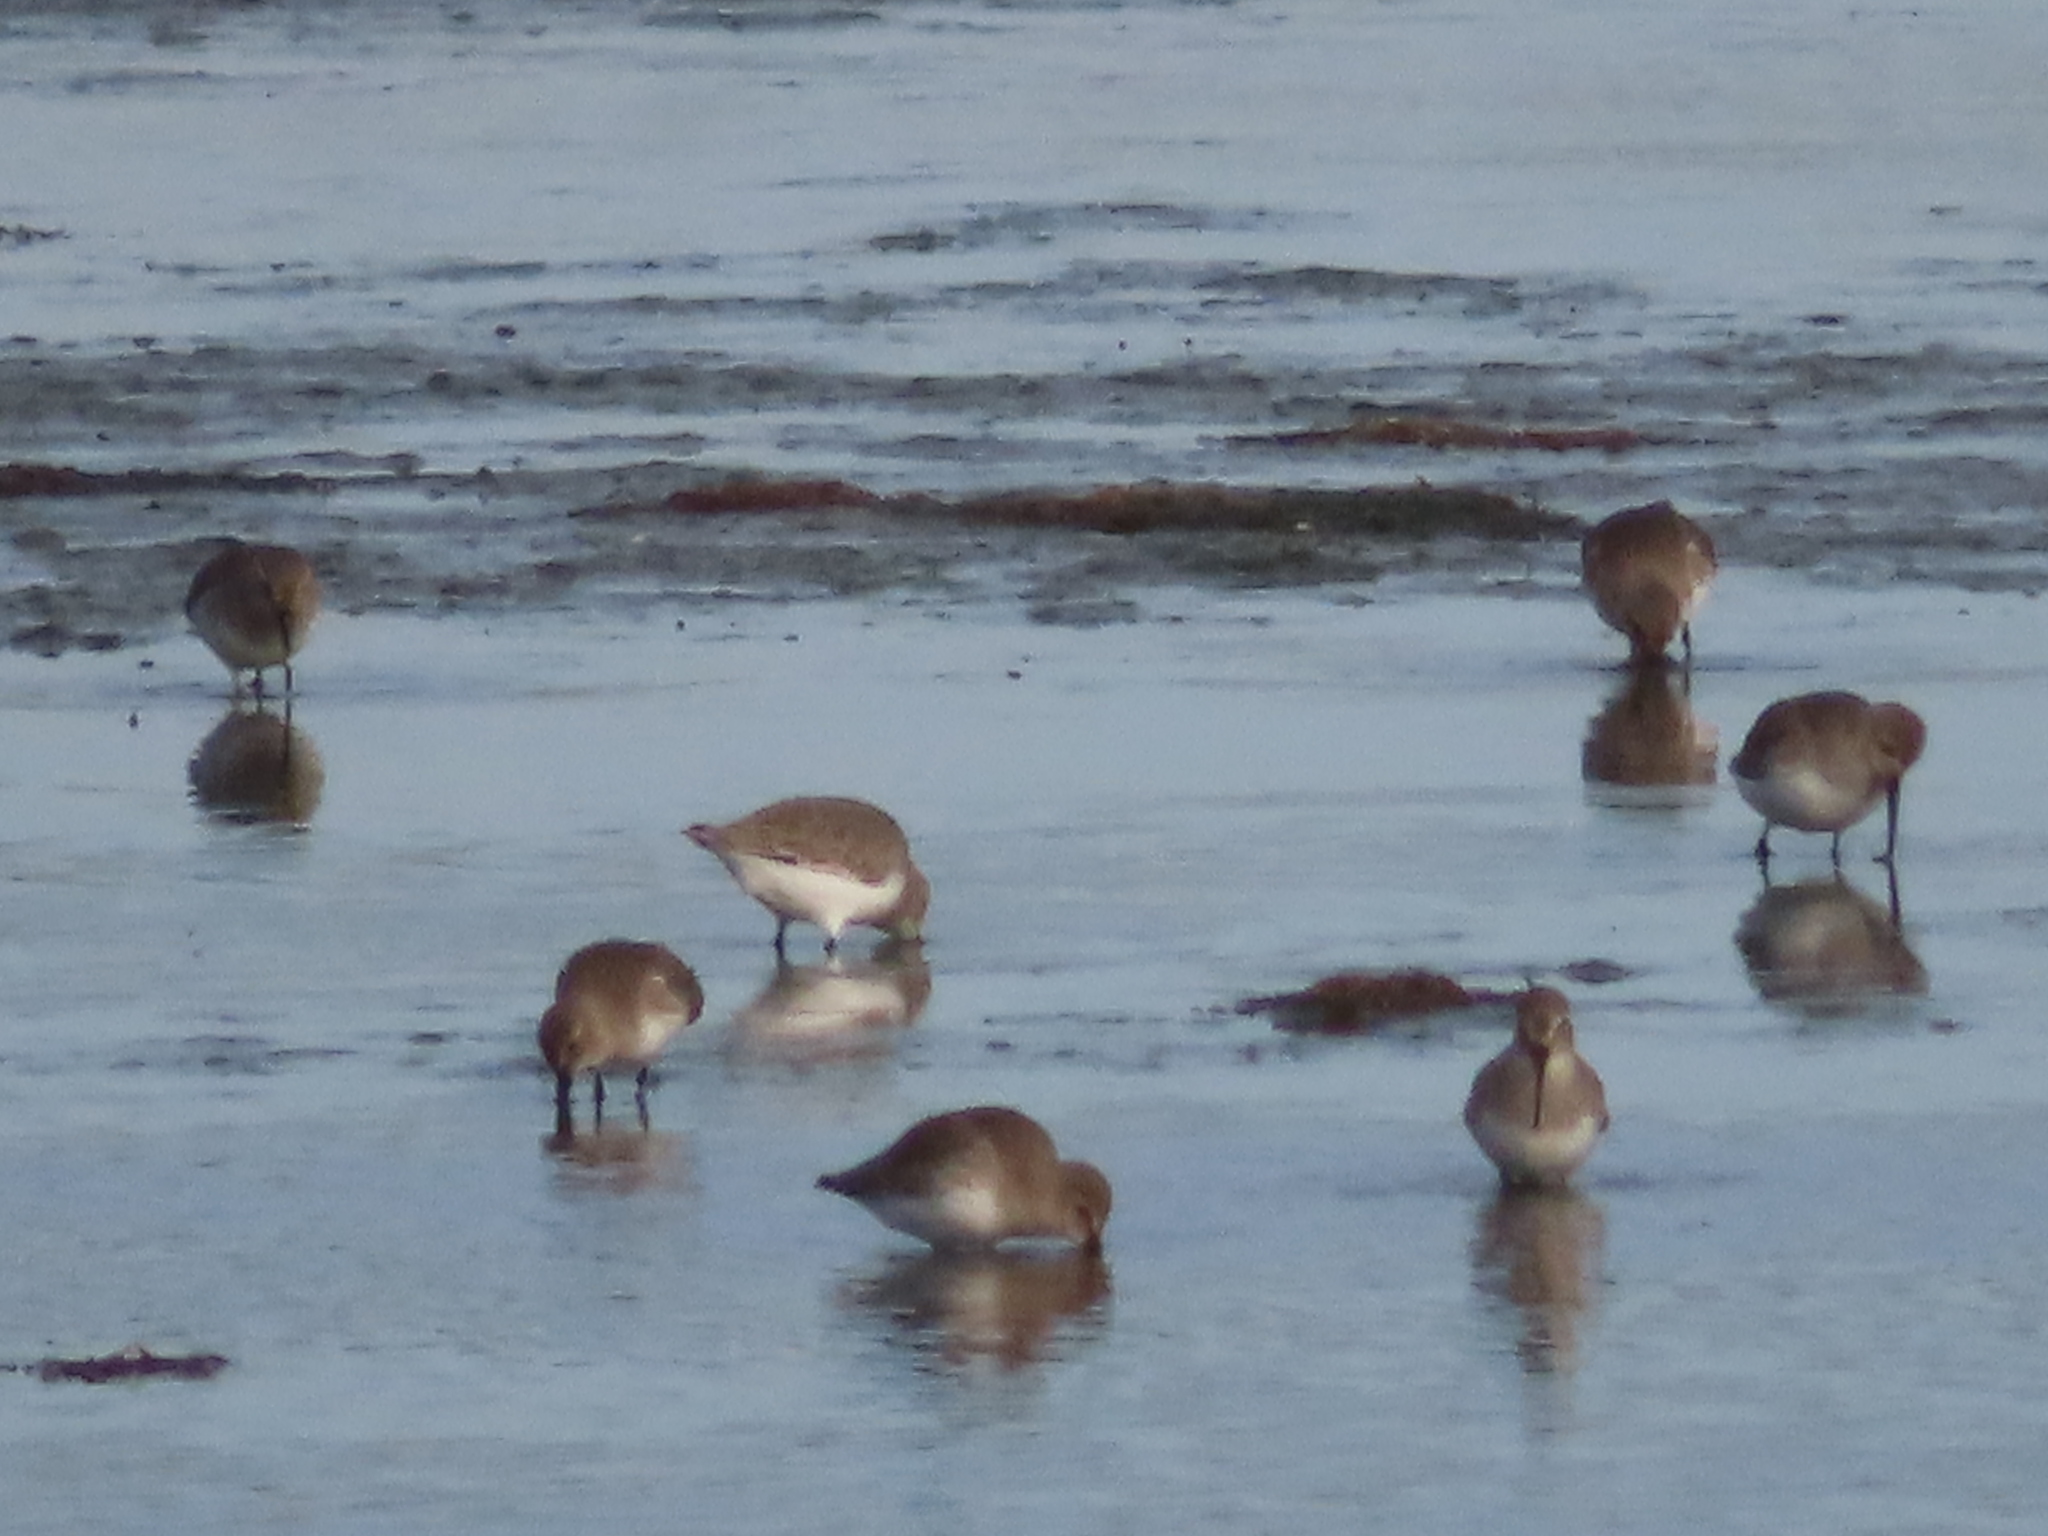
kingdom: Animalia
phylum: Chordata
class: Aves
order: Charadriiformes
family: Scolopacidae
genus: Calidris
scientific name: Calidris alpina
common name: Dunlin
